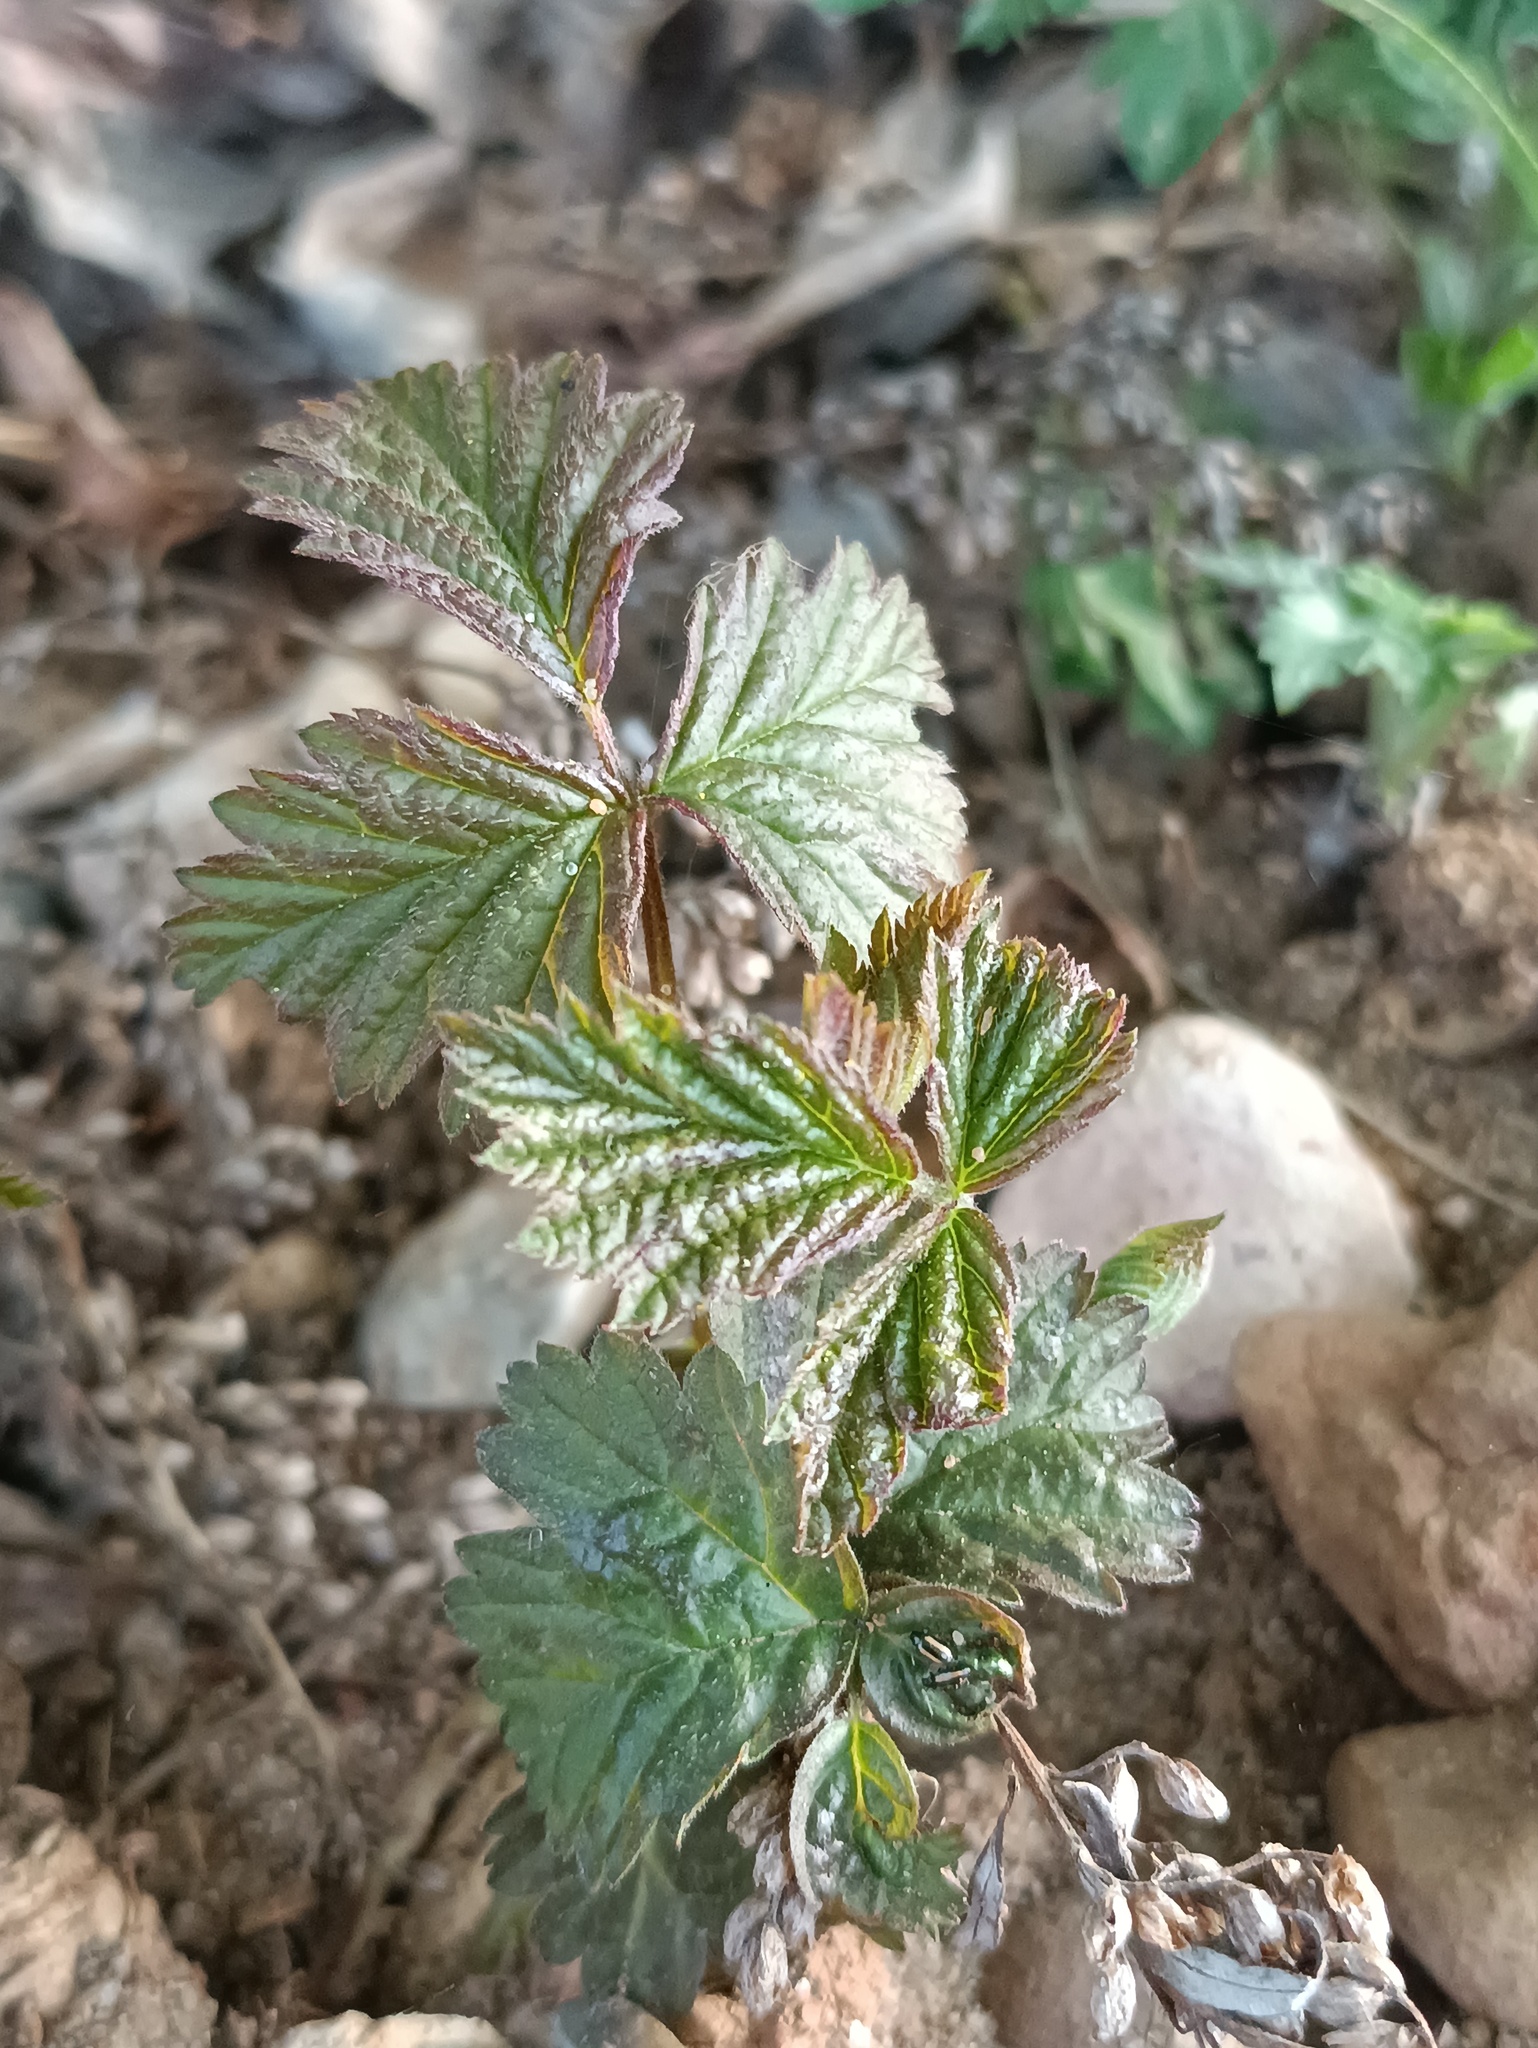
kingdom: Plantae
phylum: Tracheophyta
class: Magnoliopsida
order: Rosales
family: Rosaceae
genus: Rubus
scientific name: Rubus caesius
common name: Dewberry
